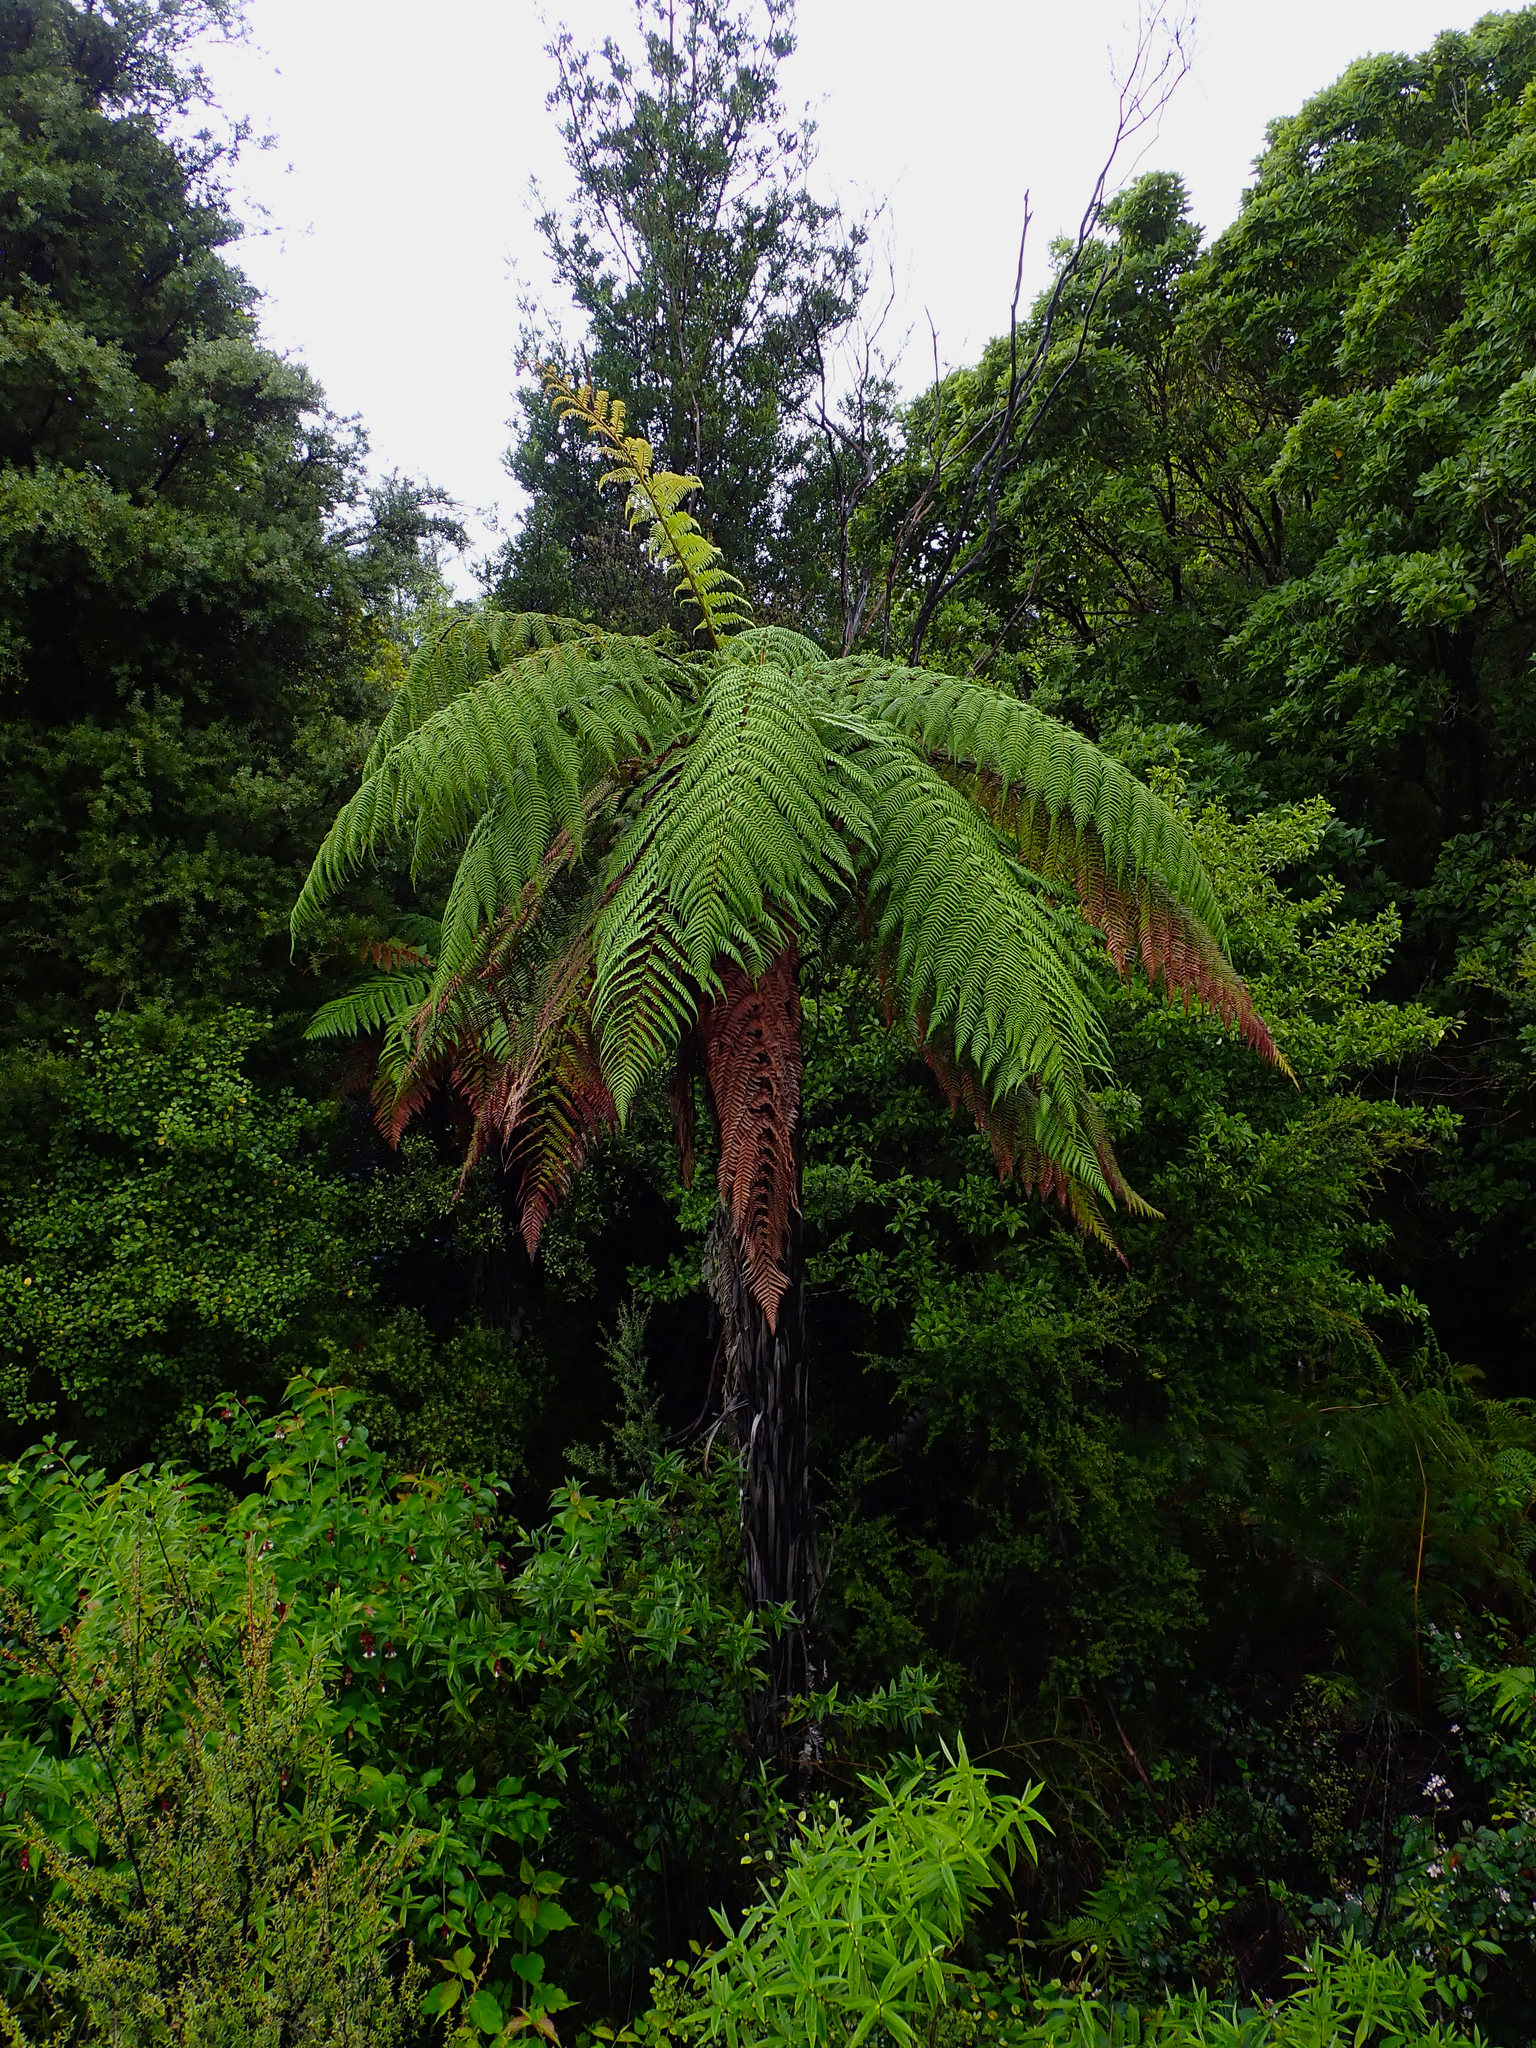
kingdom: Plantae
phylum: Tracheophyta
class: Polypodiopsida
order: Cyatheales
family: Dicksoniaceae
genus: Dicksonia
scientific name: Dicksonia squarrosa
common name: Hard treefern
